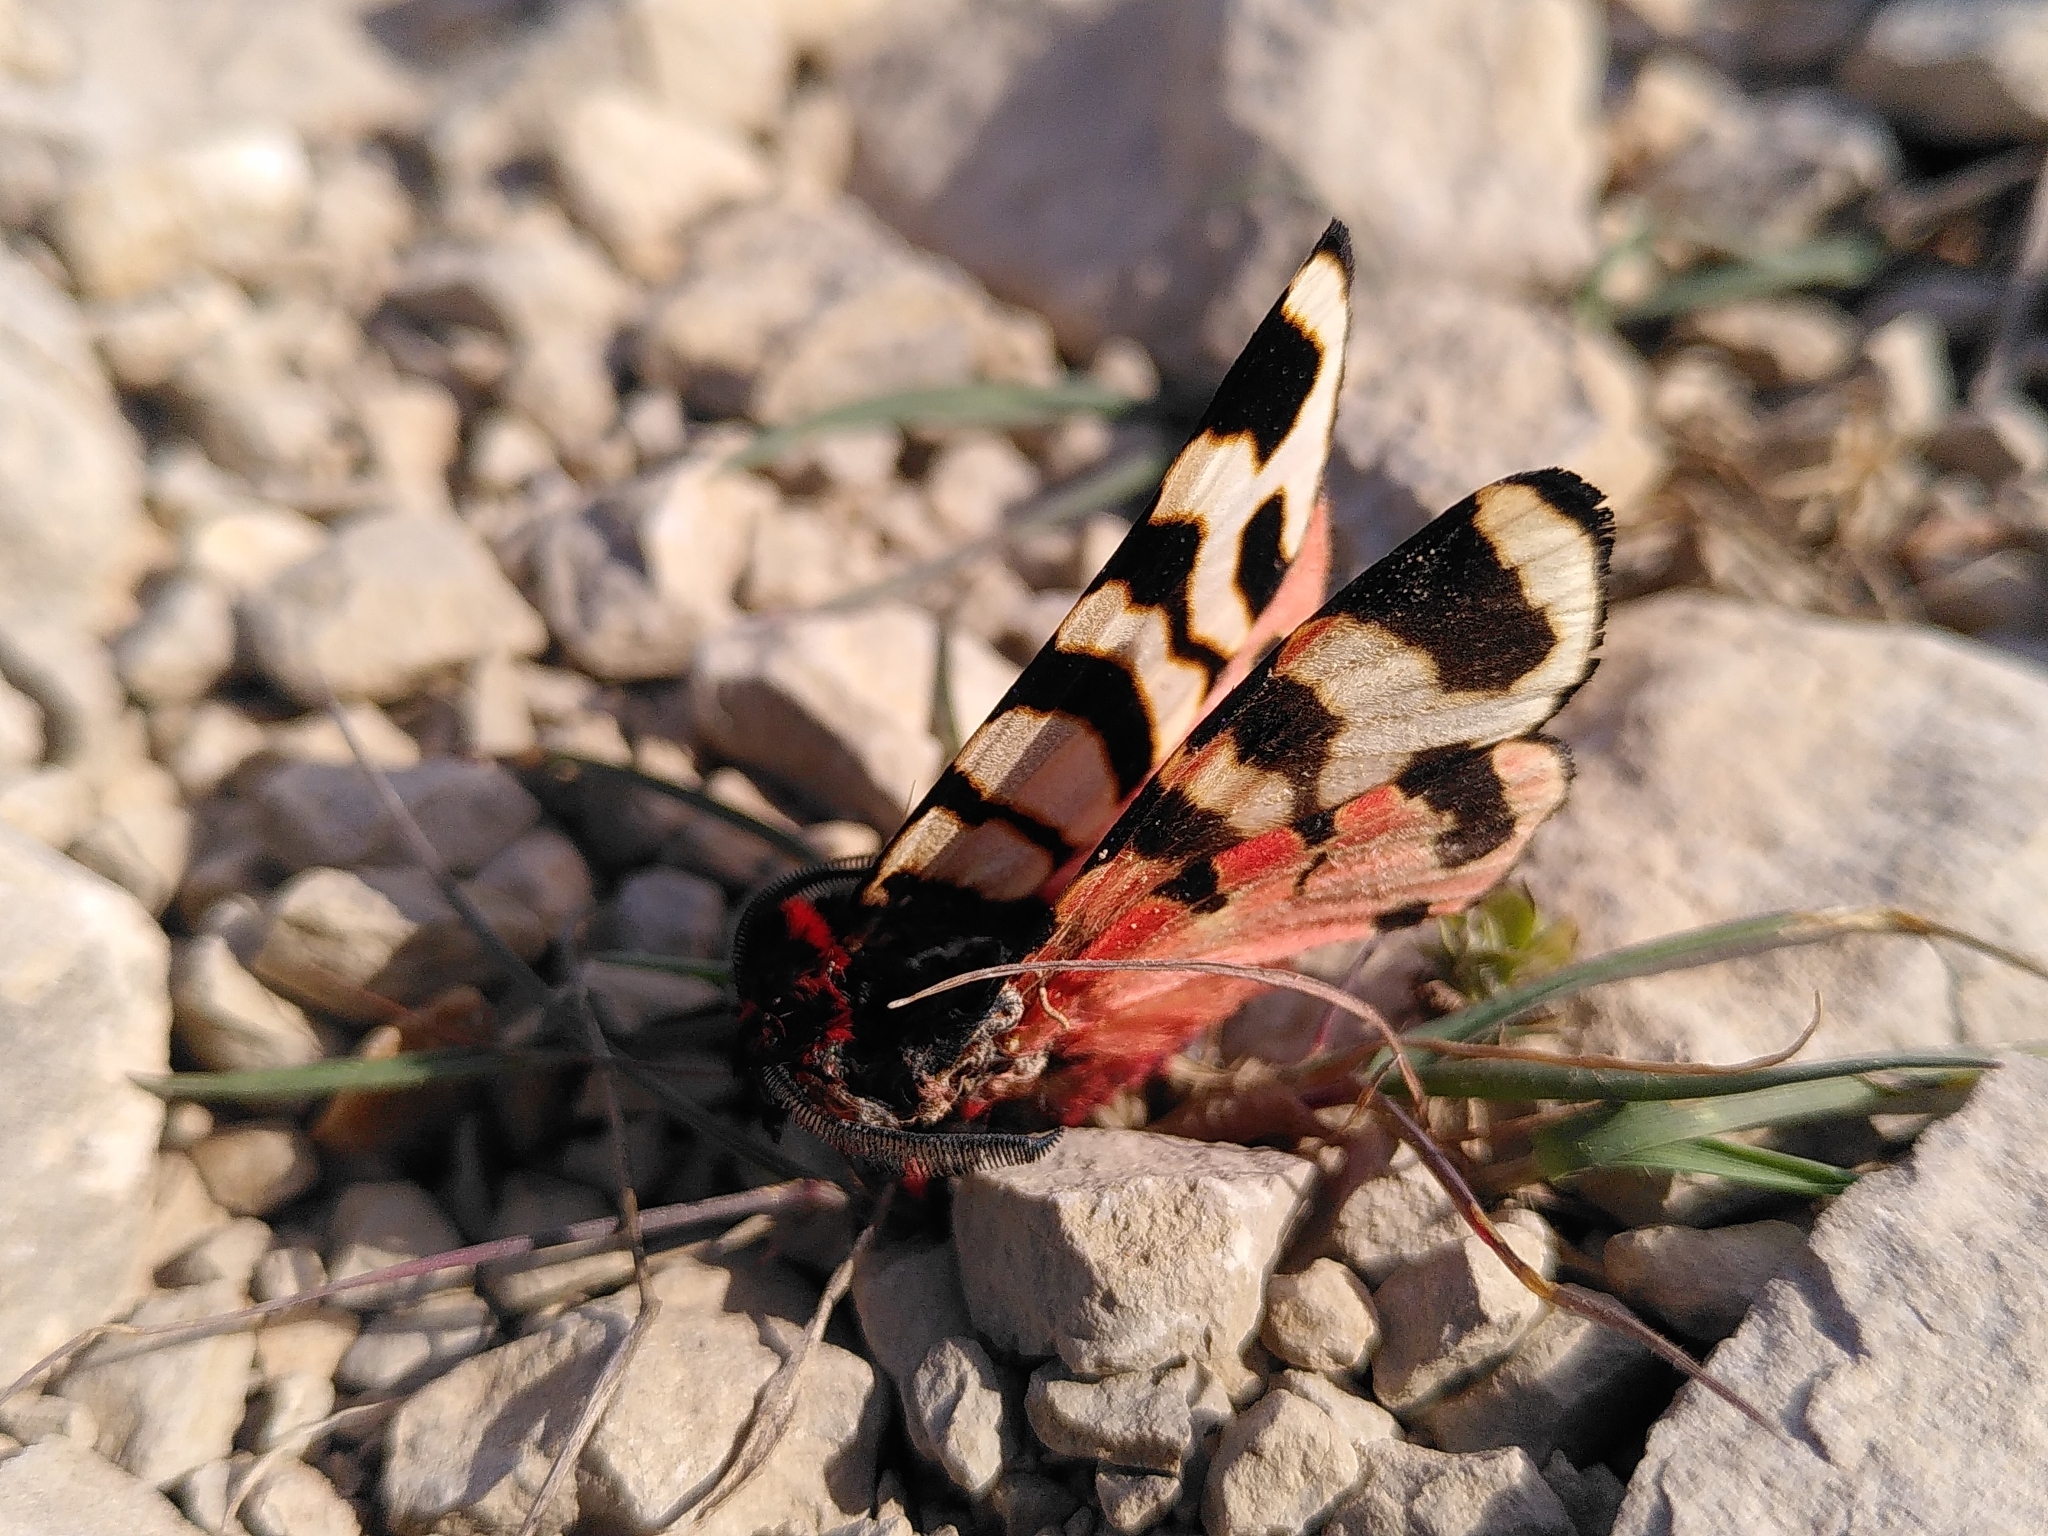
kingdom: Animalia
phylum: Arthropoda
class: Insecta
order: Lepidoptera
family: Erebidae
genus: Eucharia
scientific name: Eucharia festiva
